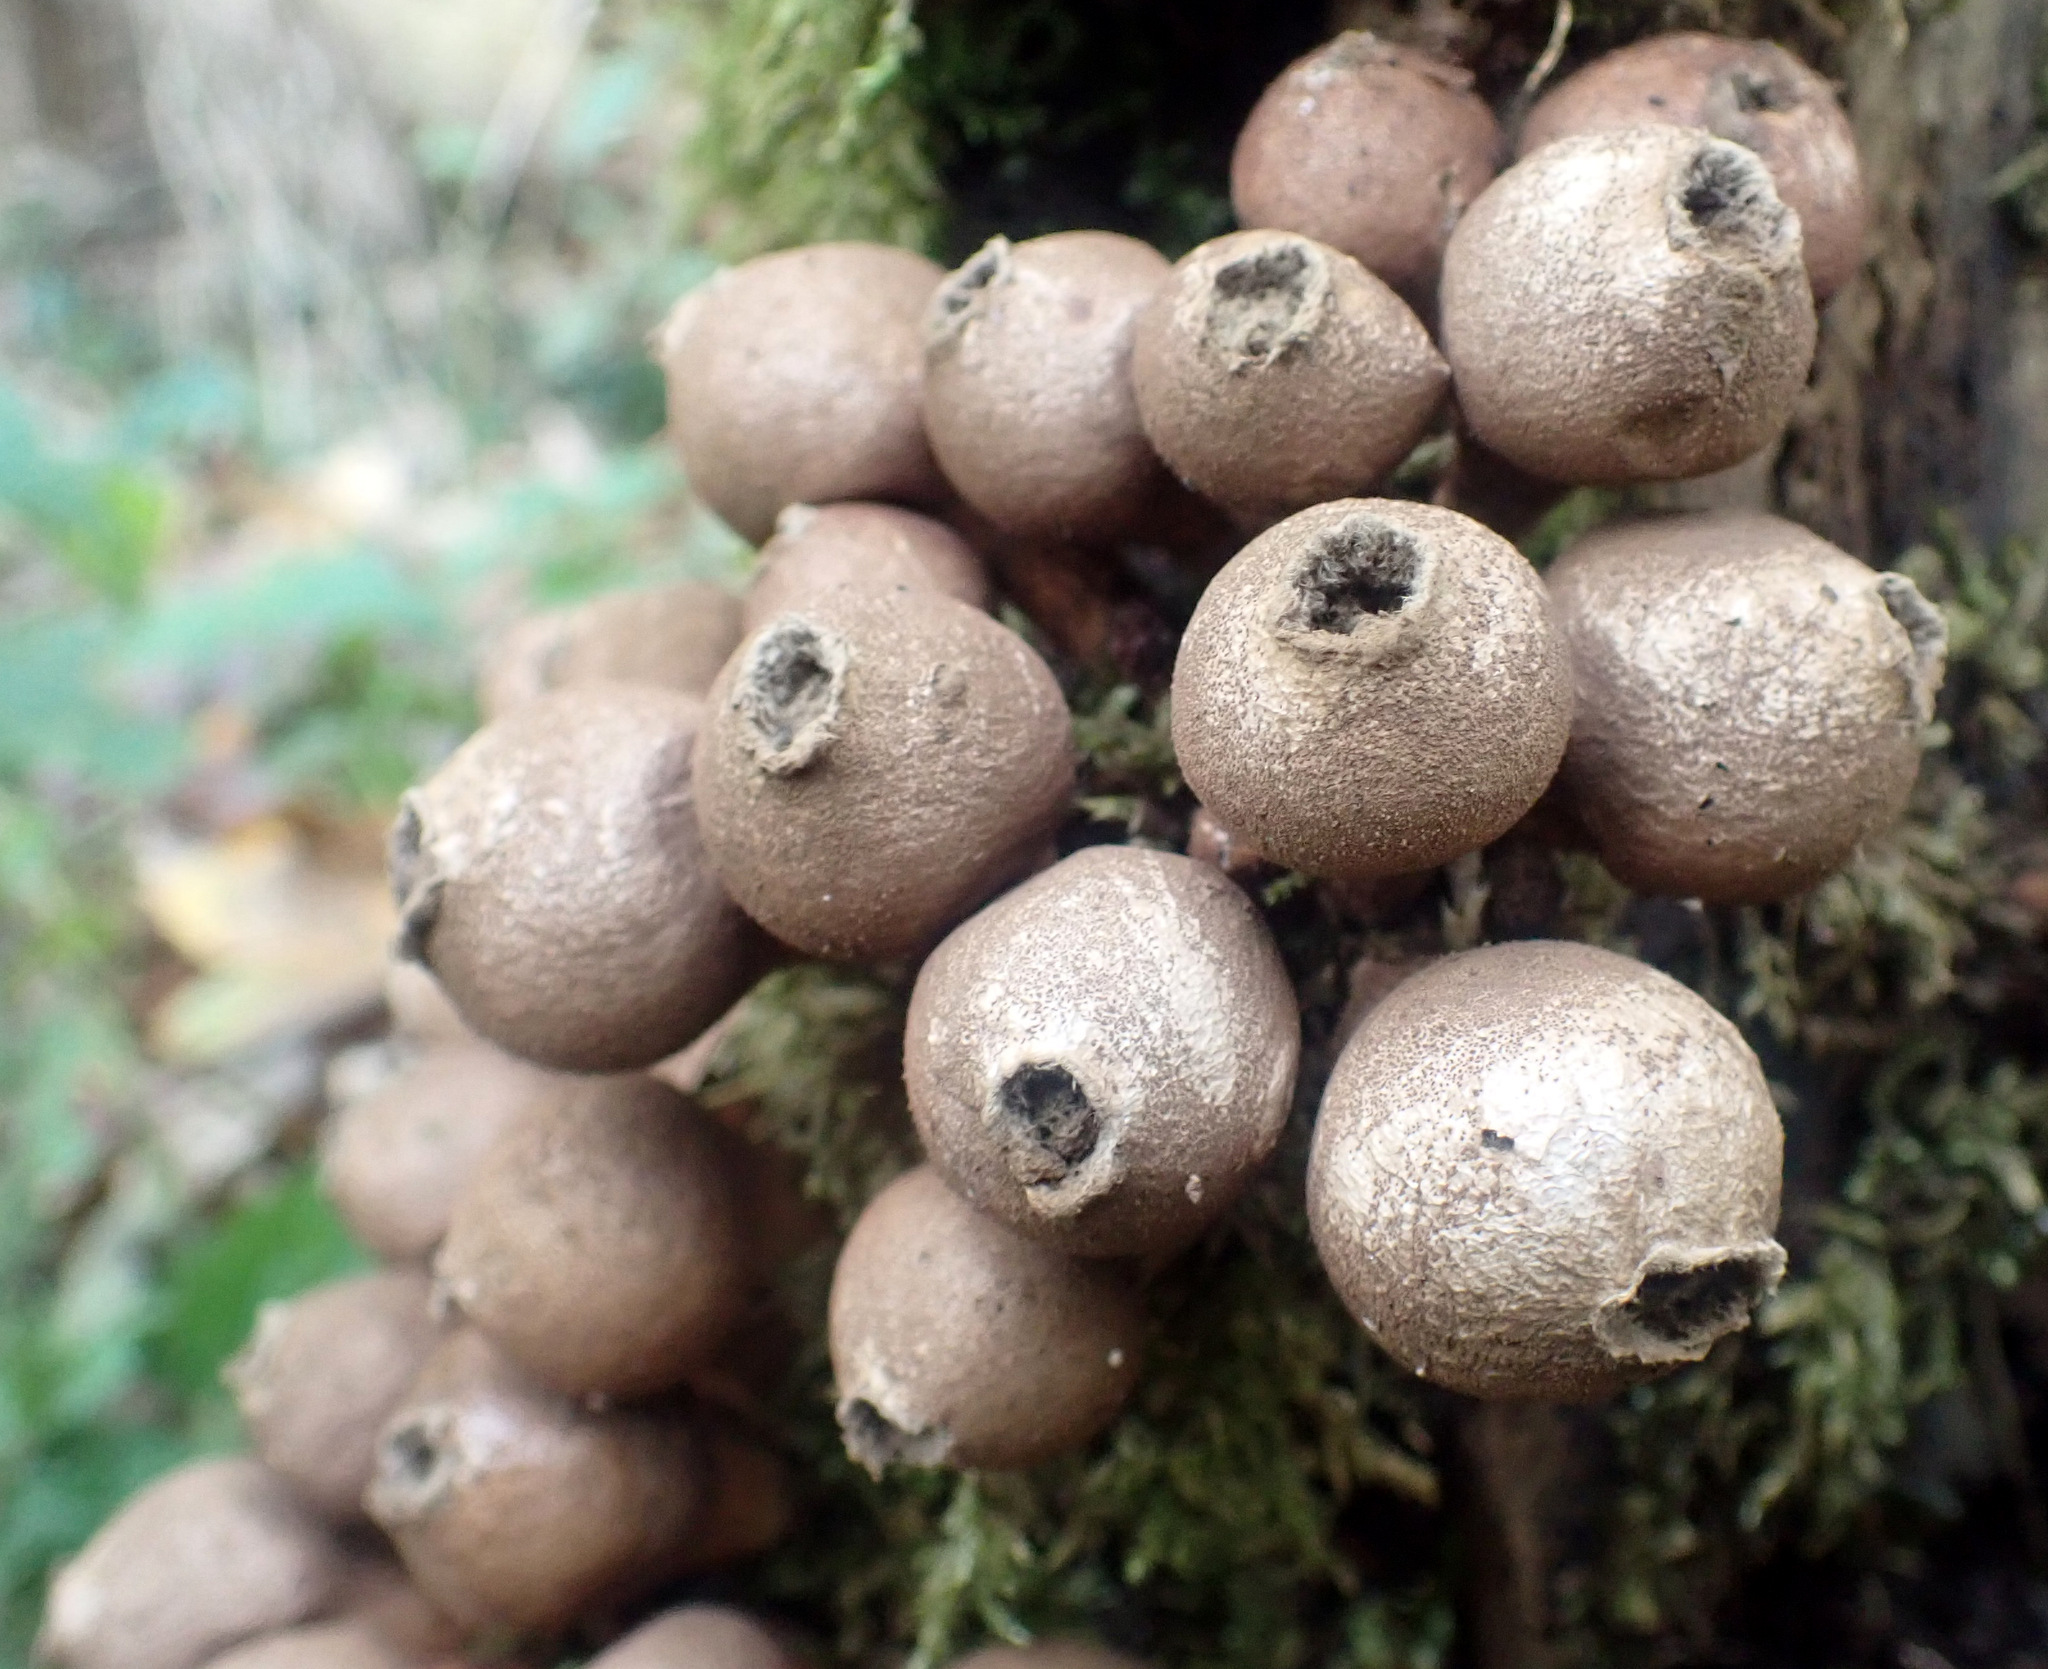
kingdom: Fungi
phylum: Basidiomycota
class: Agaricomycetes
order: Agaricales
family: Lycoperdaceae
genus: Apioperdon
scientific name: Apioperdon pyriforme
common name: Pear-shaped puffball
